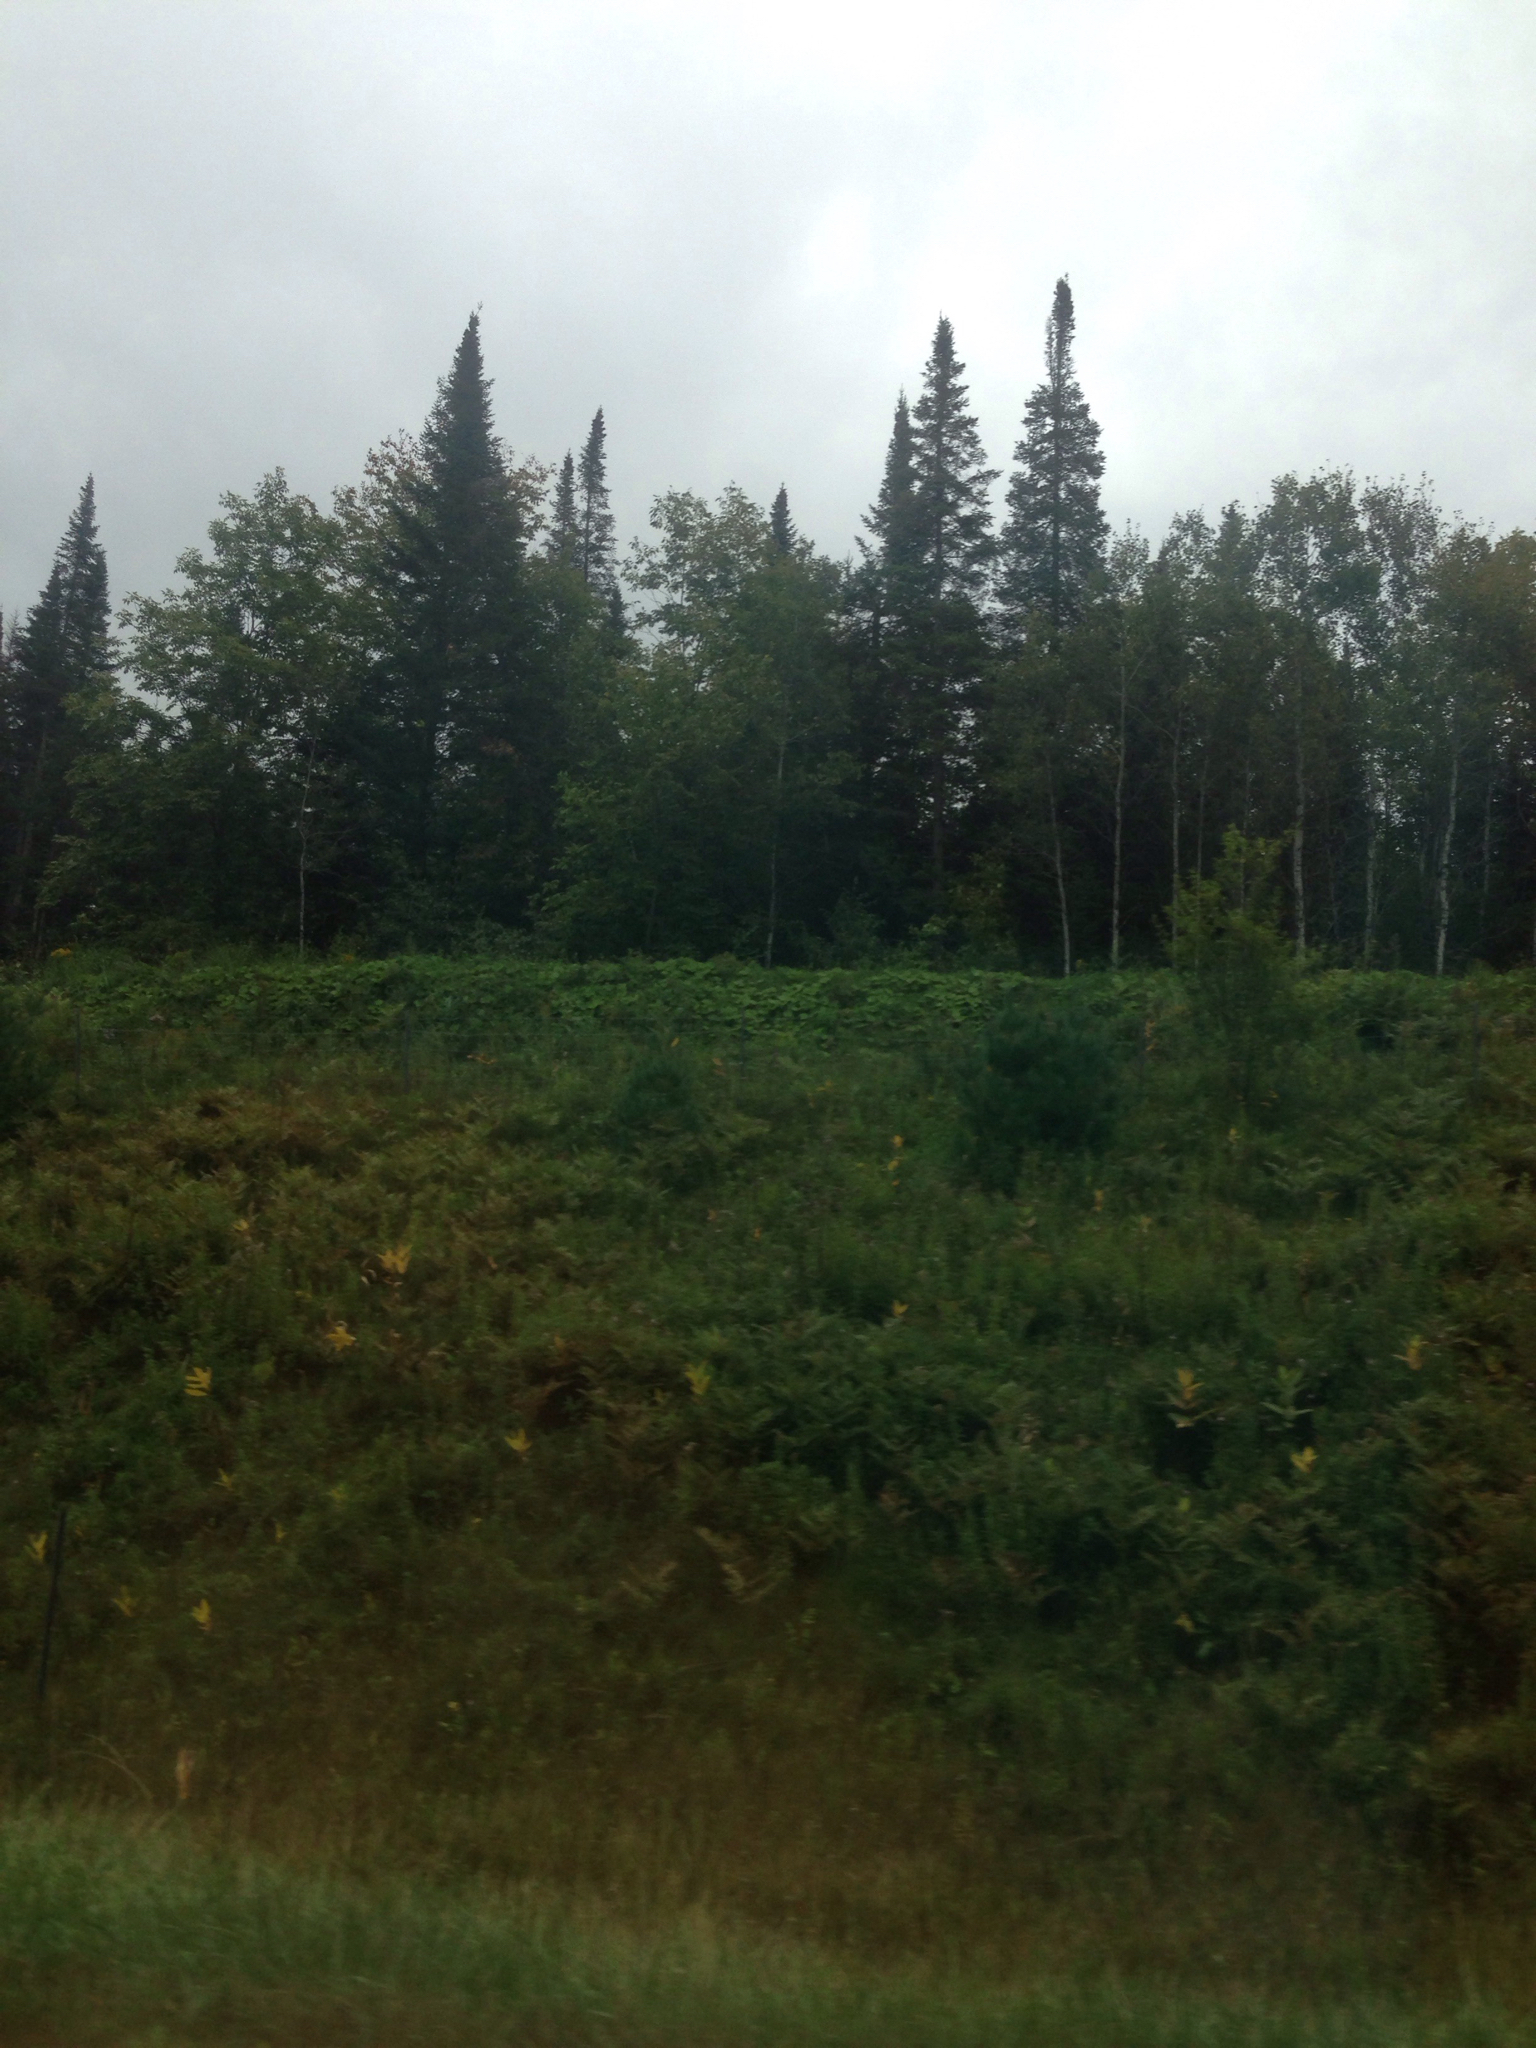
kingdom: Plantae
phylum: Tracheophyta
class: Pinopsida
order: Pinales
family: Pinaceae
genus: Abies
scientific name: Abies balsamea
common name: Balsam fir
